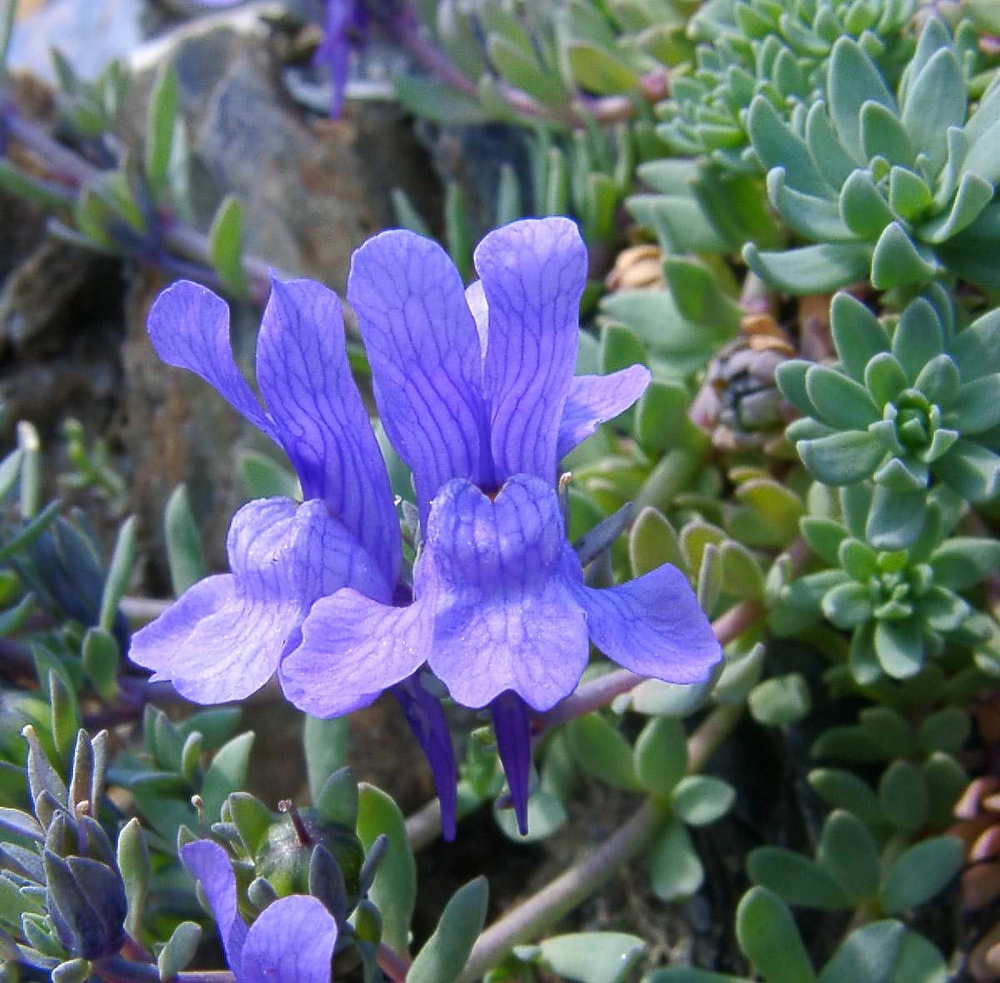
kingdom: Plantae
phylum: Tracheophyta
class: Magnoliopsida
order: Lamiales
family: Plantaginaceae
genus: Linaria
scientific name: Linaria alpina
